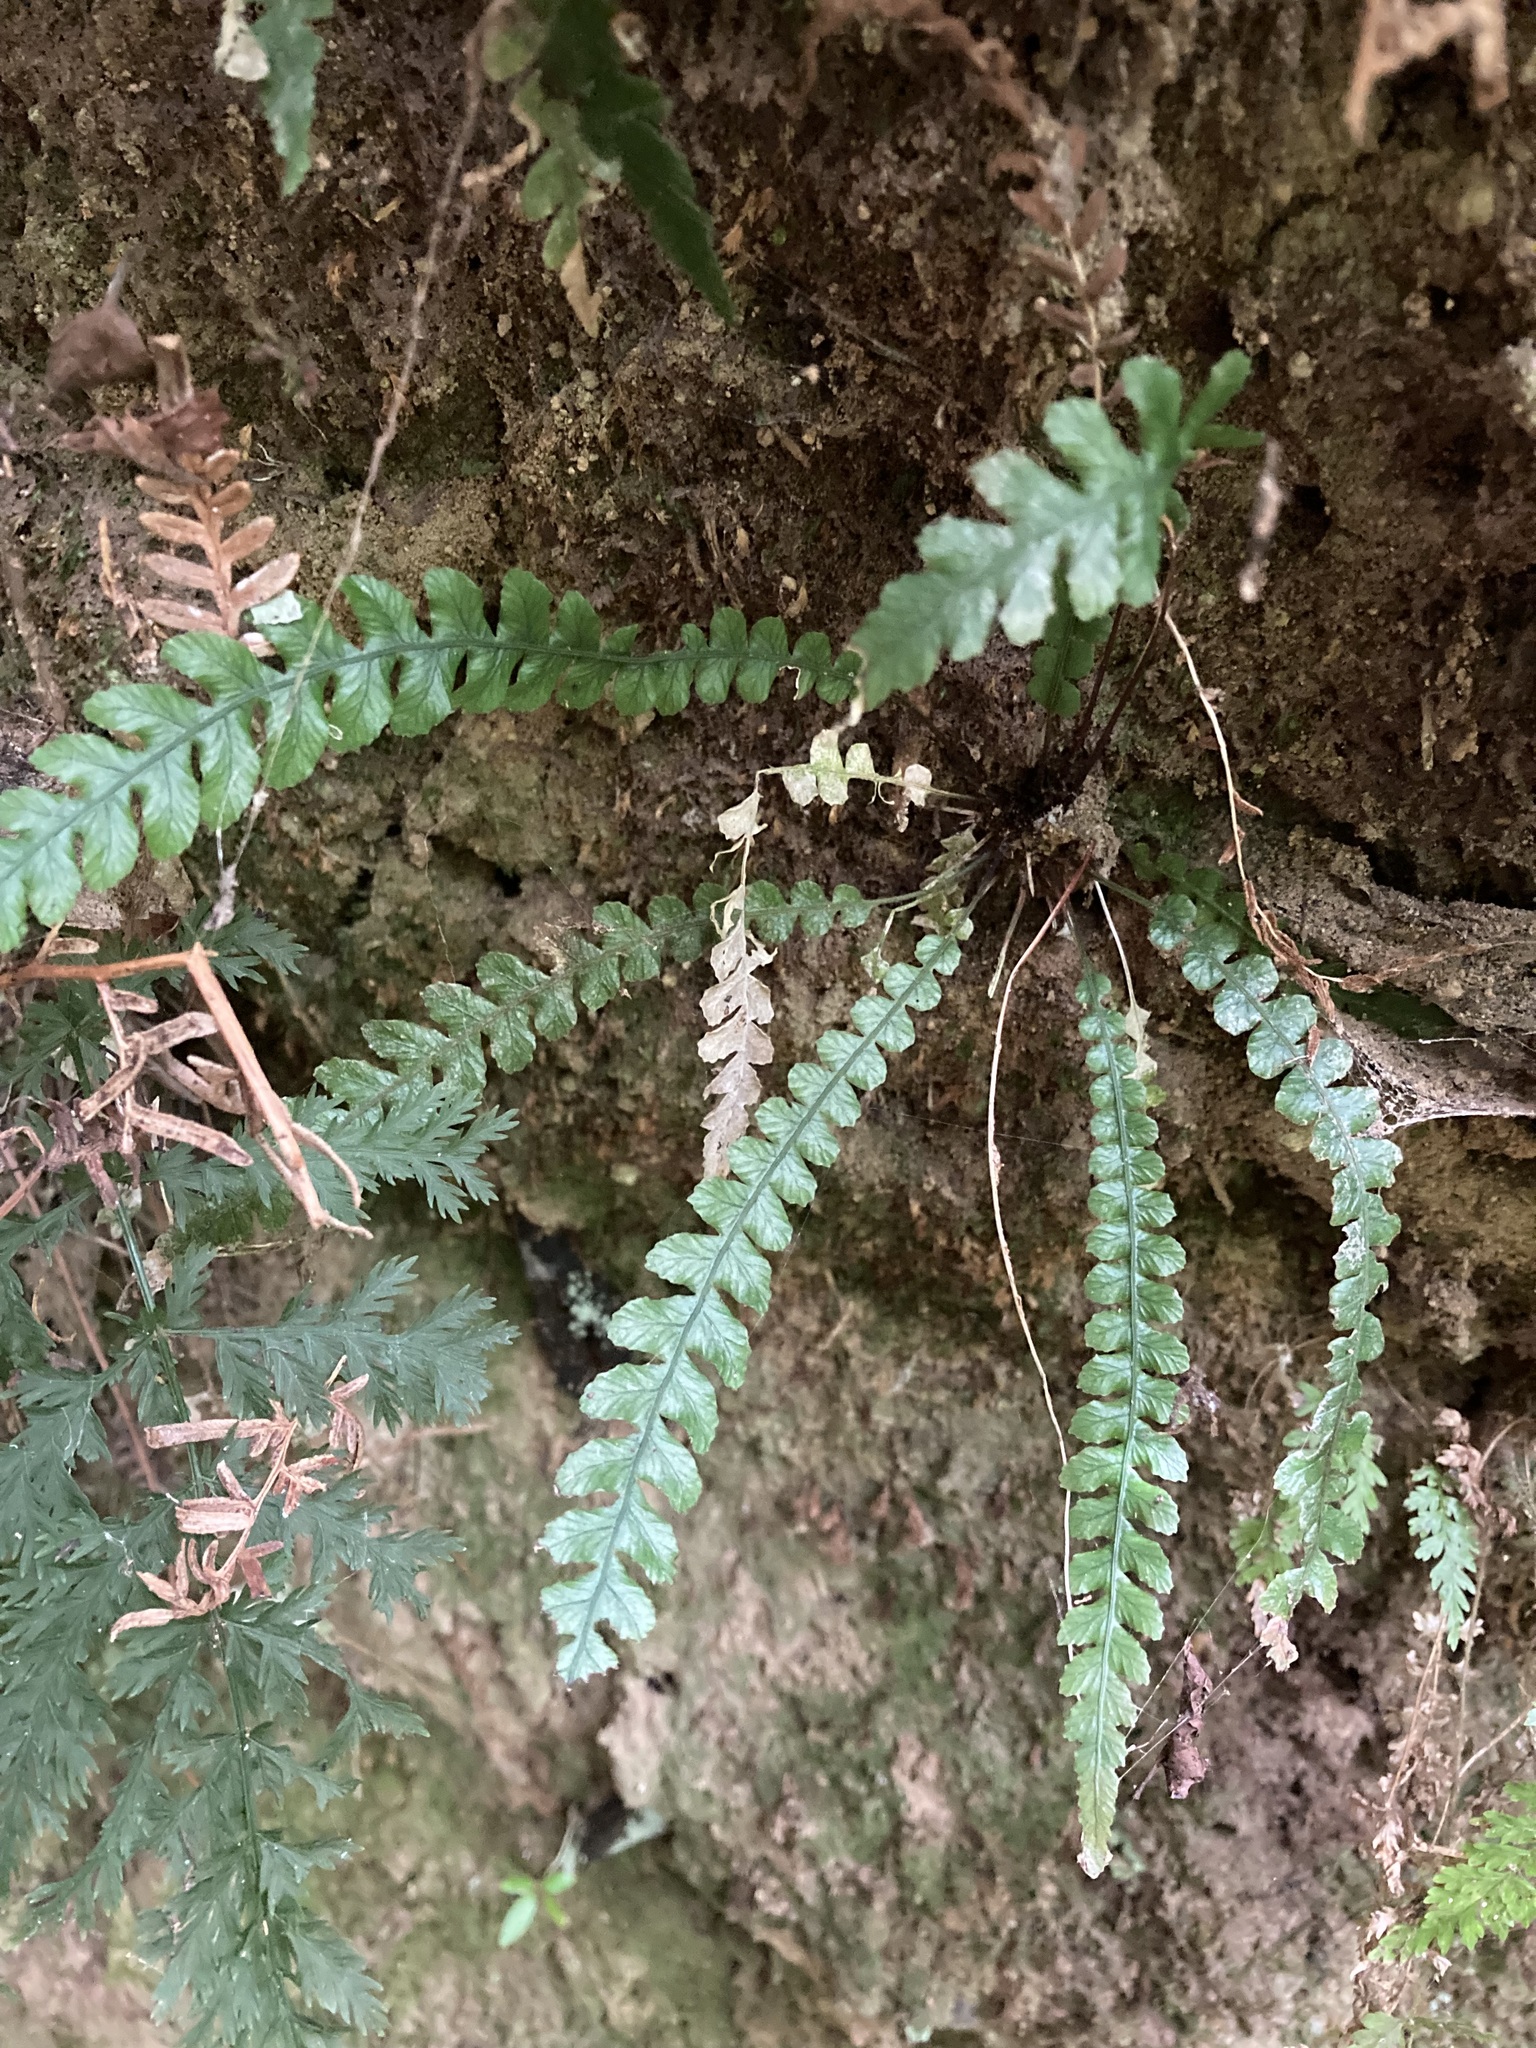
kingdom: Plantae
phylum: Tracheophyta
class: Polypodiopsida
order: Polypodiales
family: Blechnaceae
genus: Austroblechnum
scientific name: Austroblechnum membranaceum
